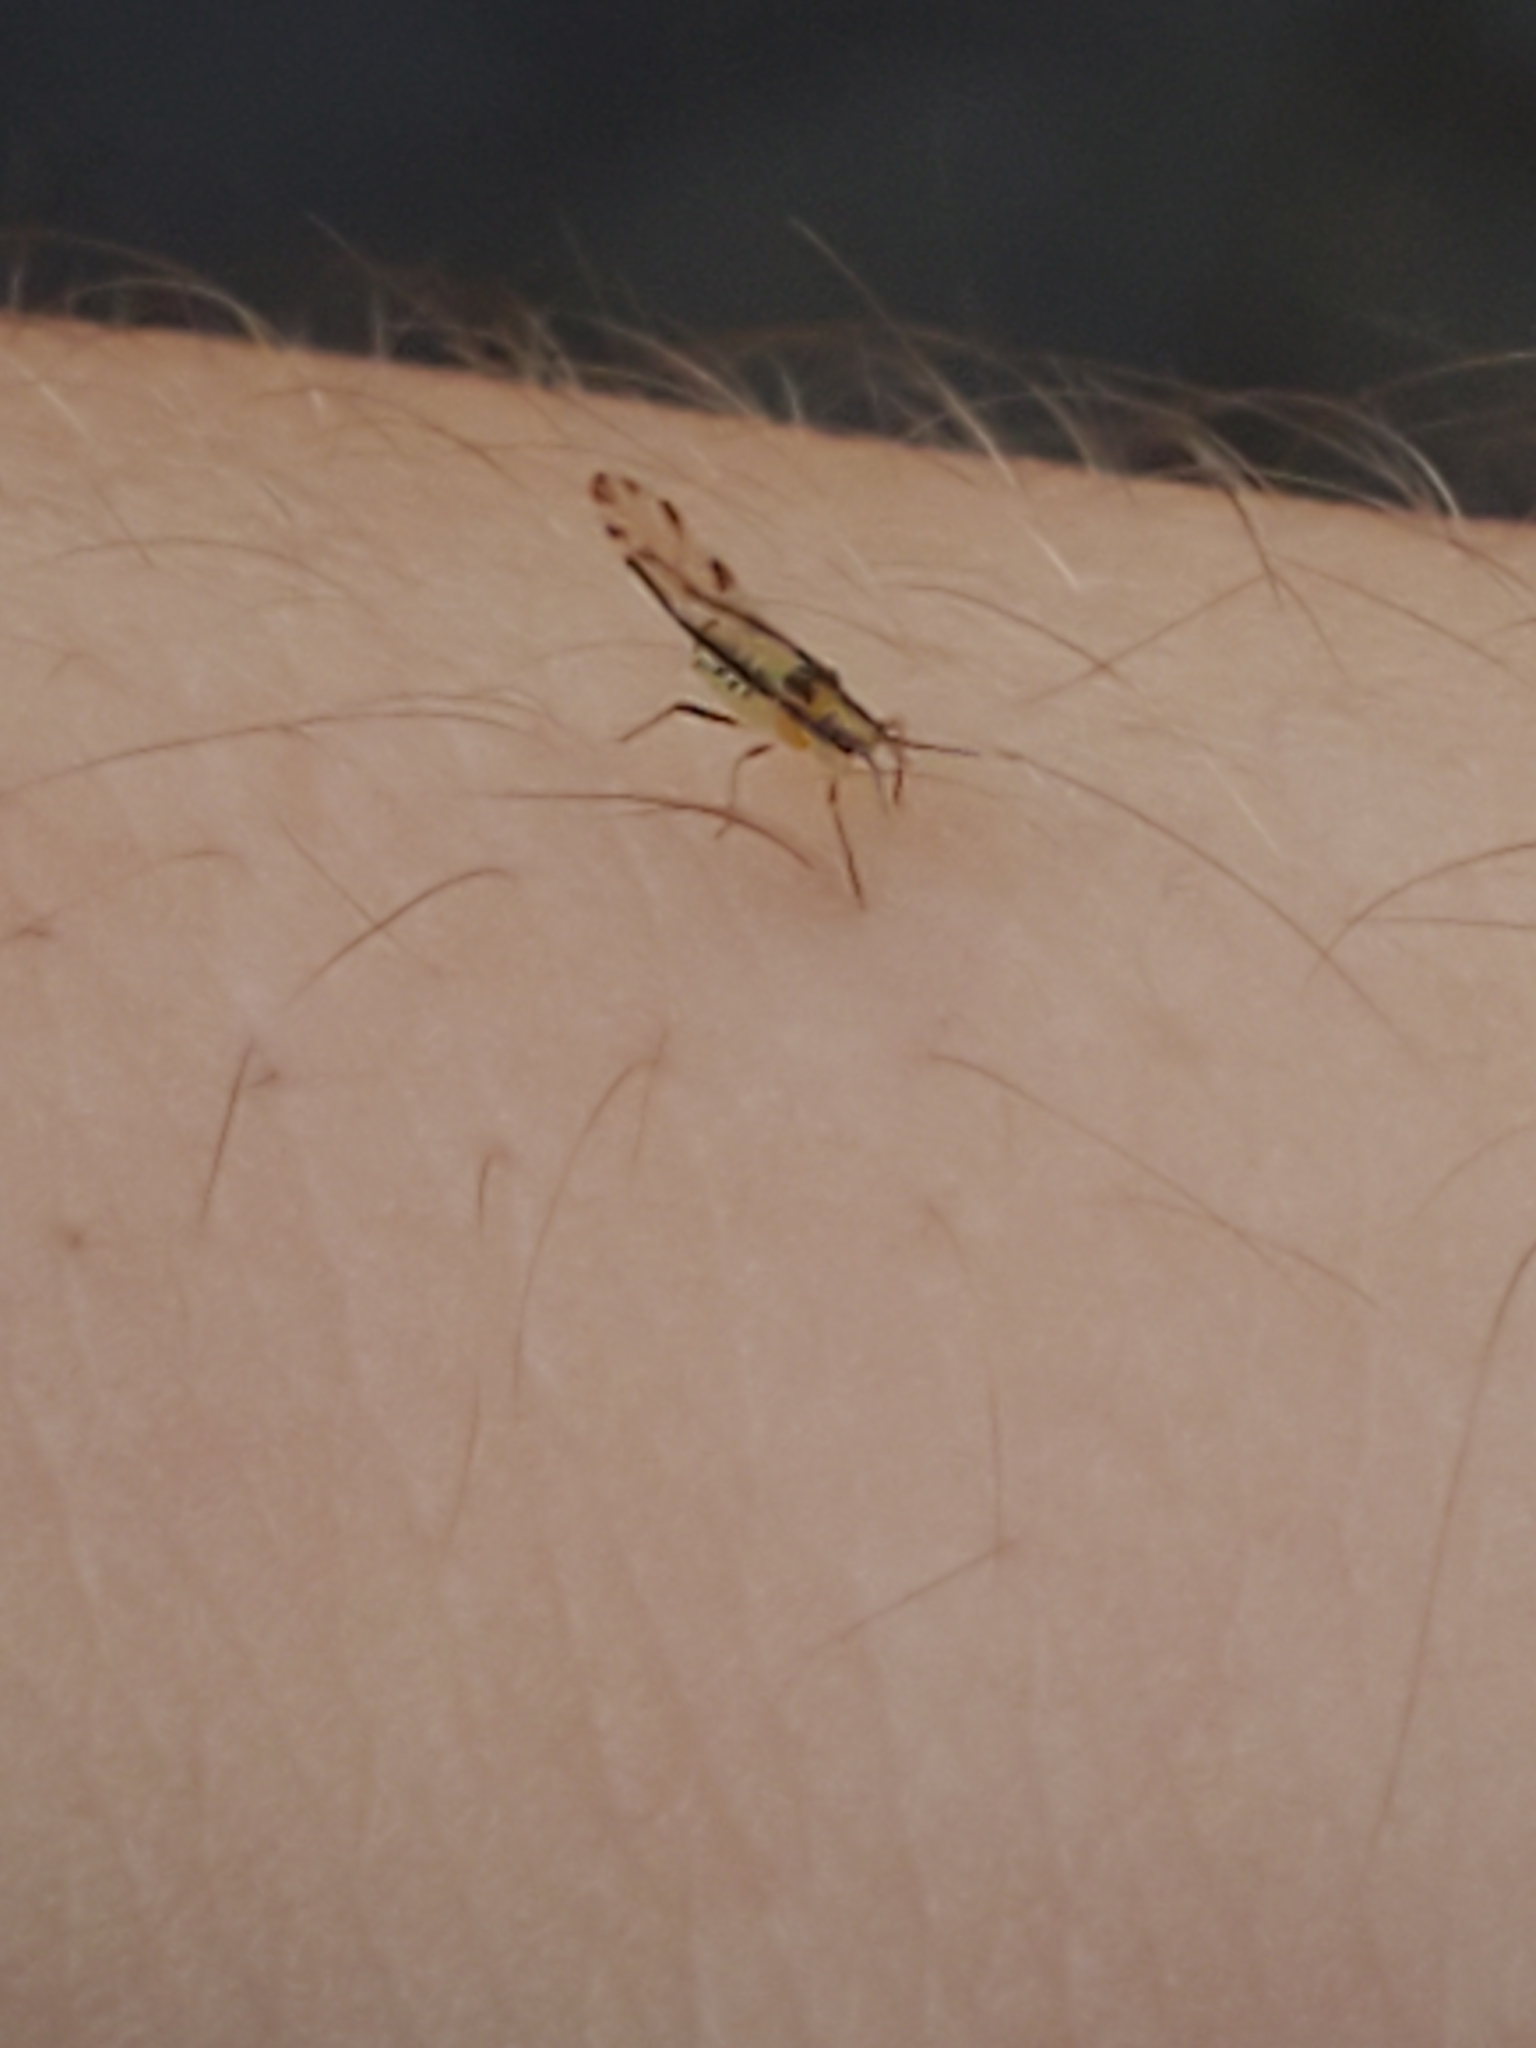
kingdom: Animalia
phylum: Arthropoda
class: Insecta
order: Hemiptera
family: Aphididae
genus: Eucallipterus
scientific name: Eucallipterus tiliae
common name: Aphid
